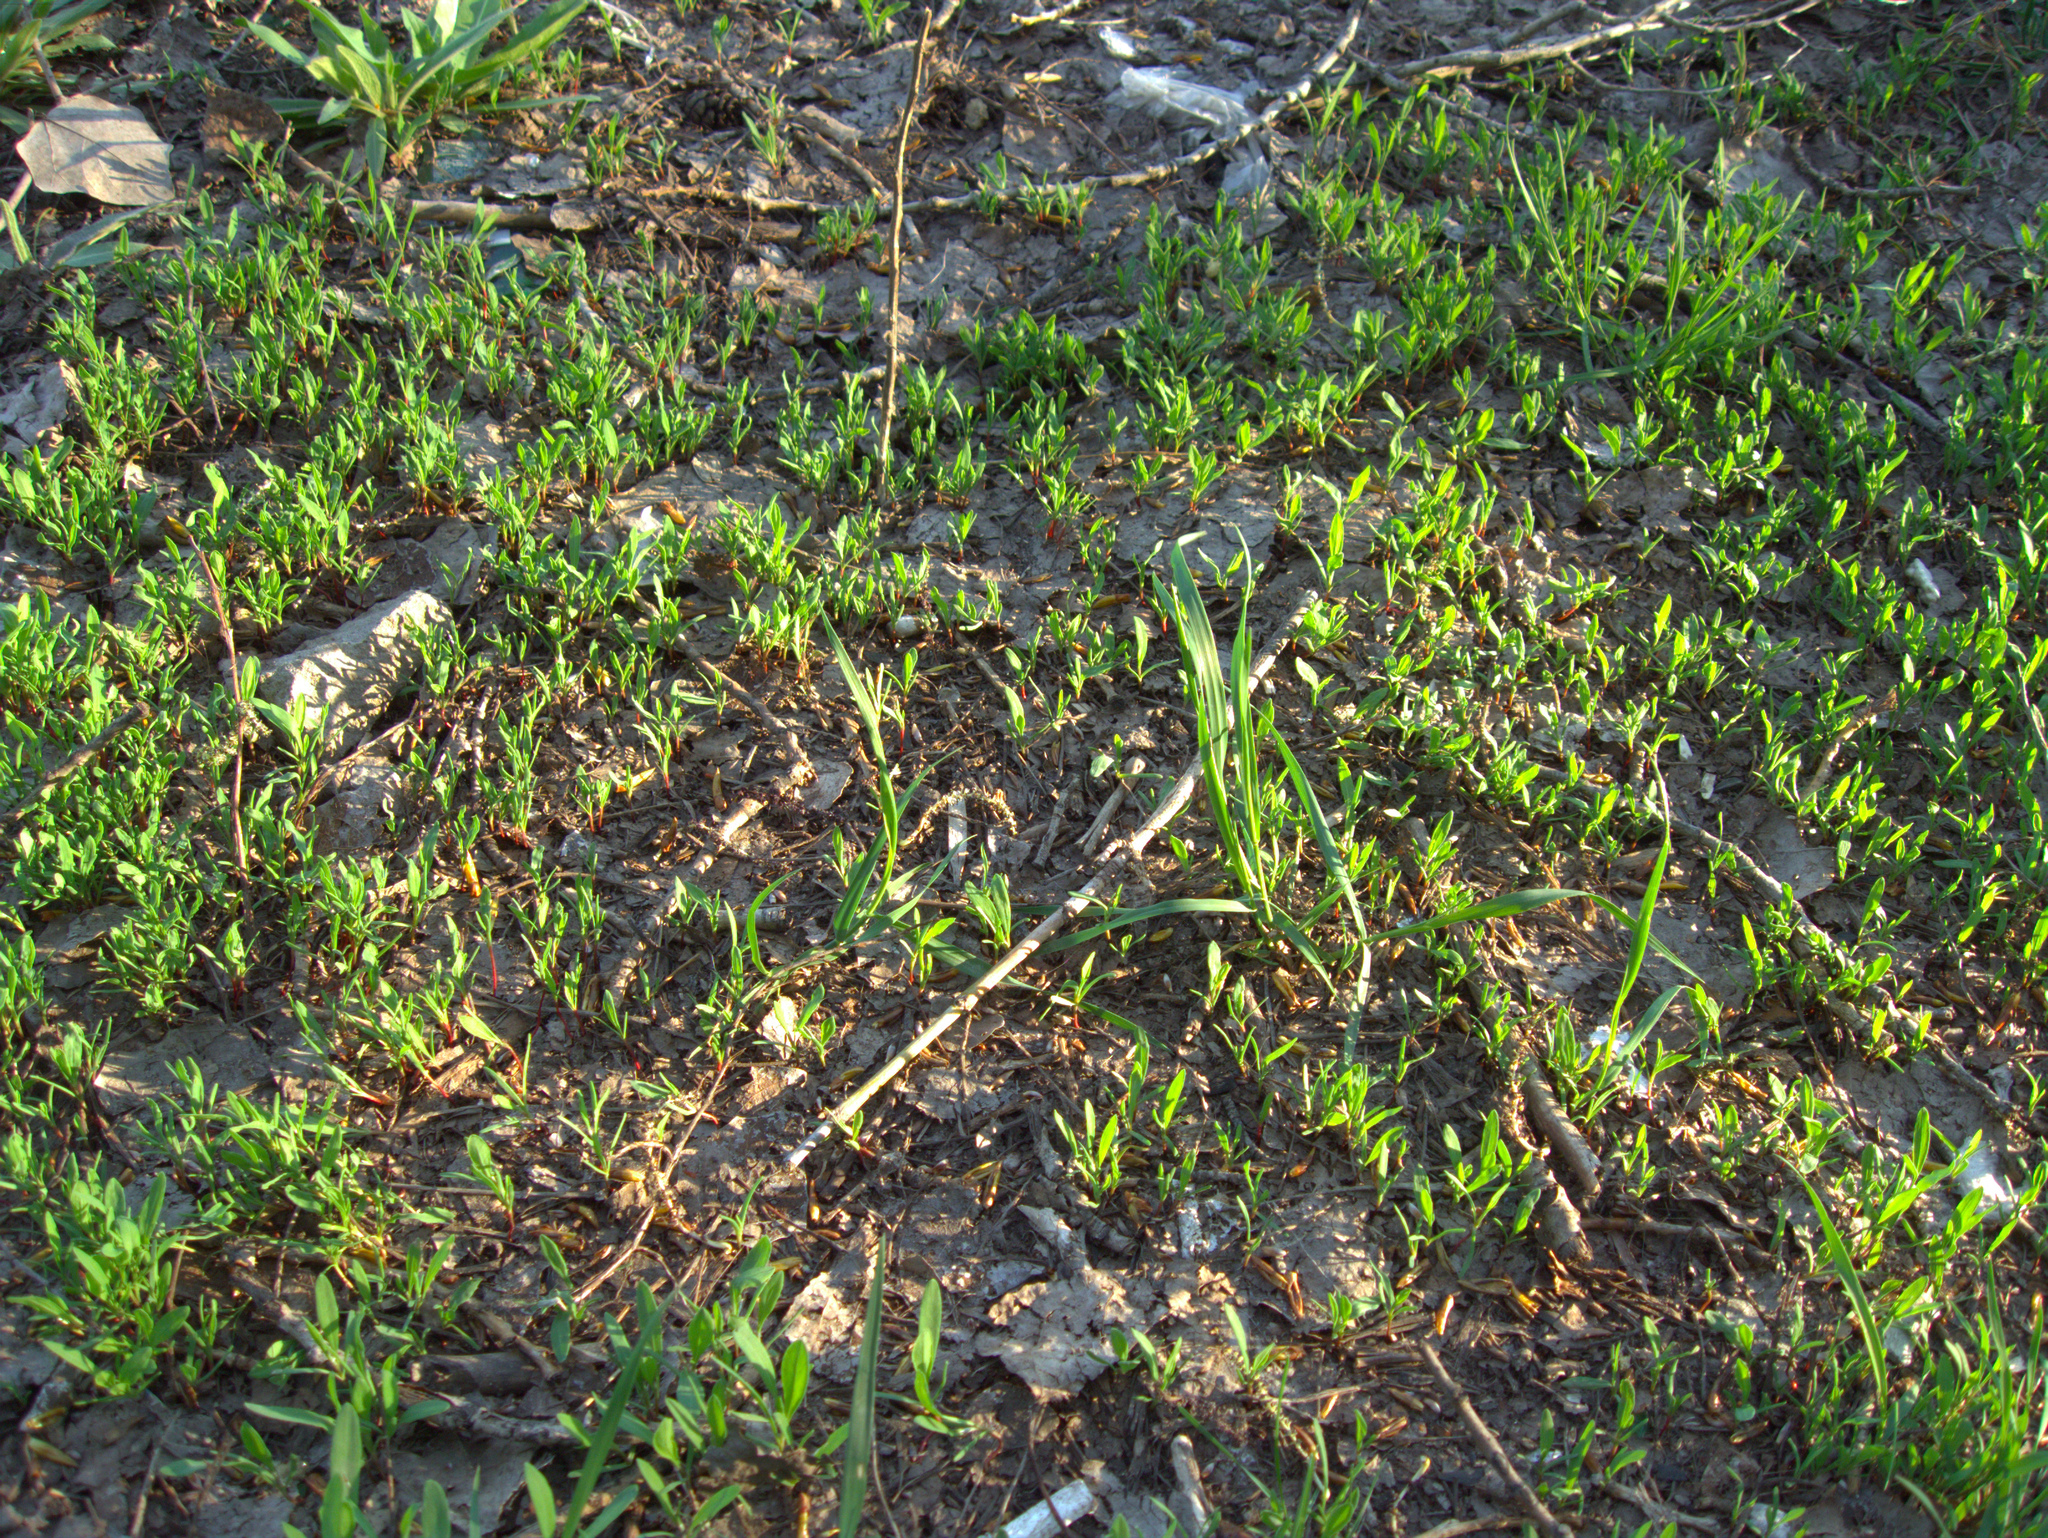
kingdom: Plantae
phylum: Tracheophyta
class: Magnoliopsida
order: Caryophyllales
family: Polygonaceae
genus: Polygonum
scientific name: Polygonum
